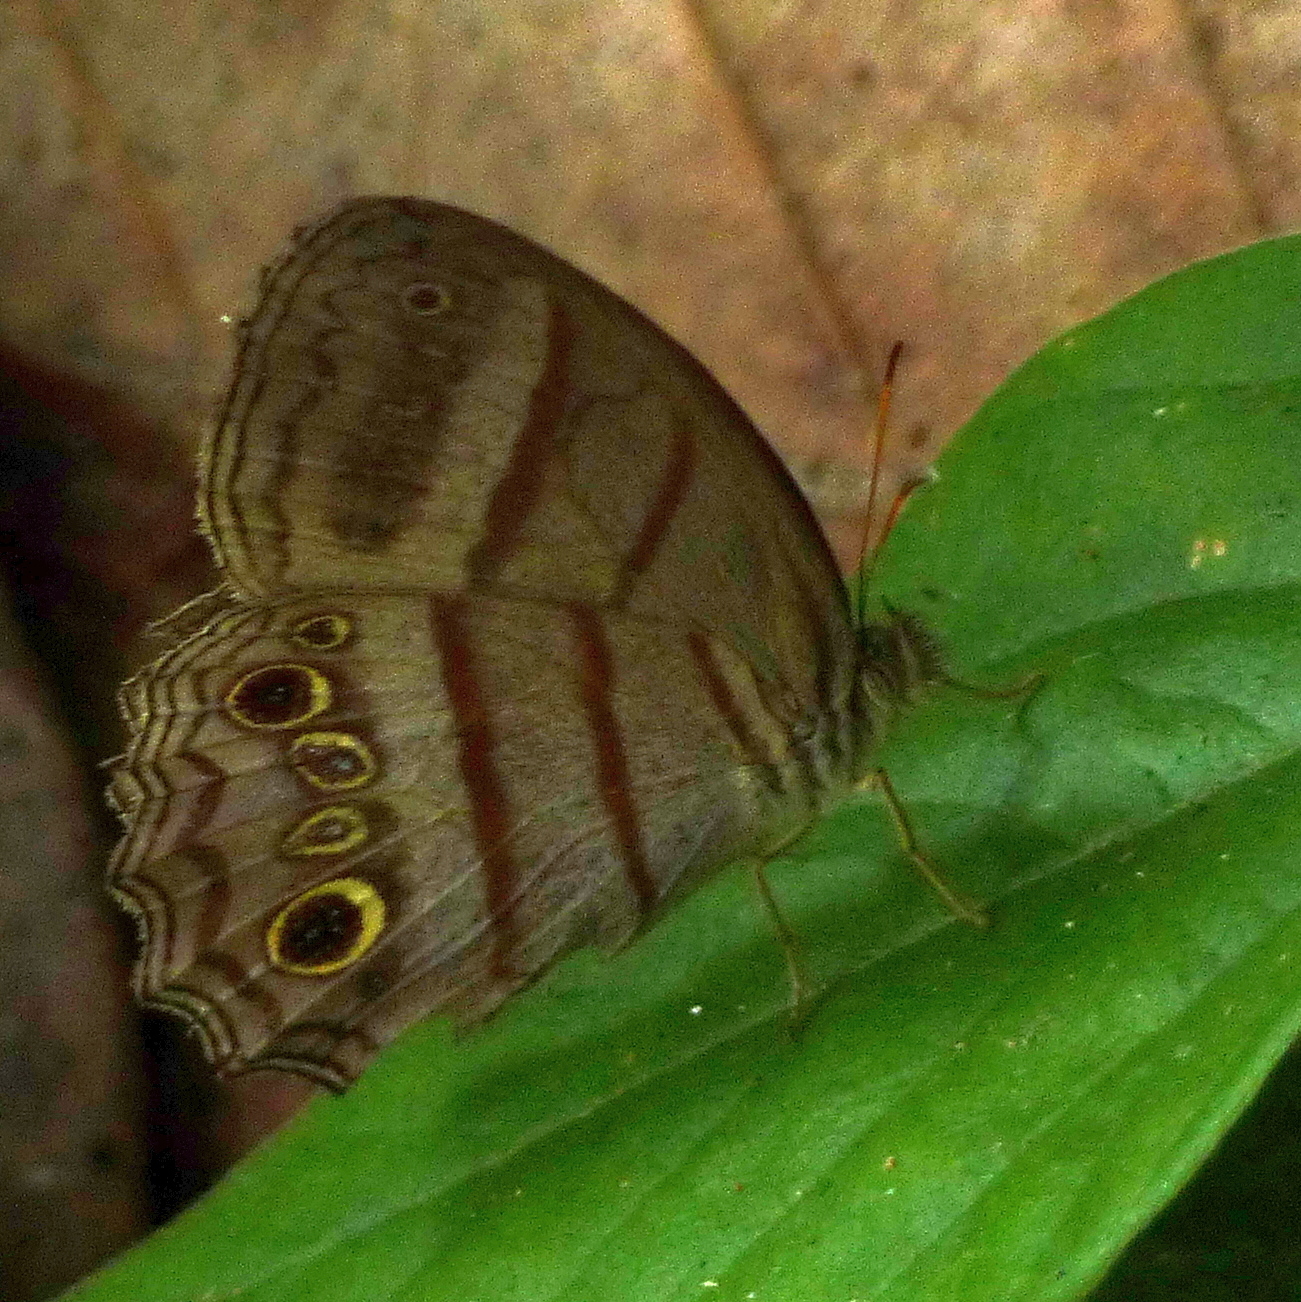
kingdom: Animalia
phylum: Arthropoda
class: Insecta
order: Lepidoptera
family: Nymphalidae
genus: Magneuptychia
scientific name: Magneuptychia libye
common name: Blue-gray satyr
